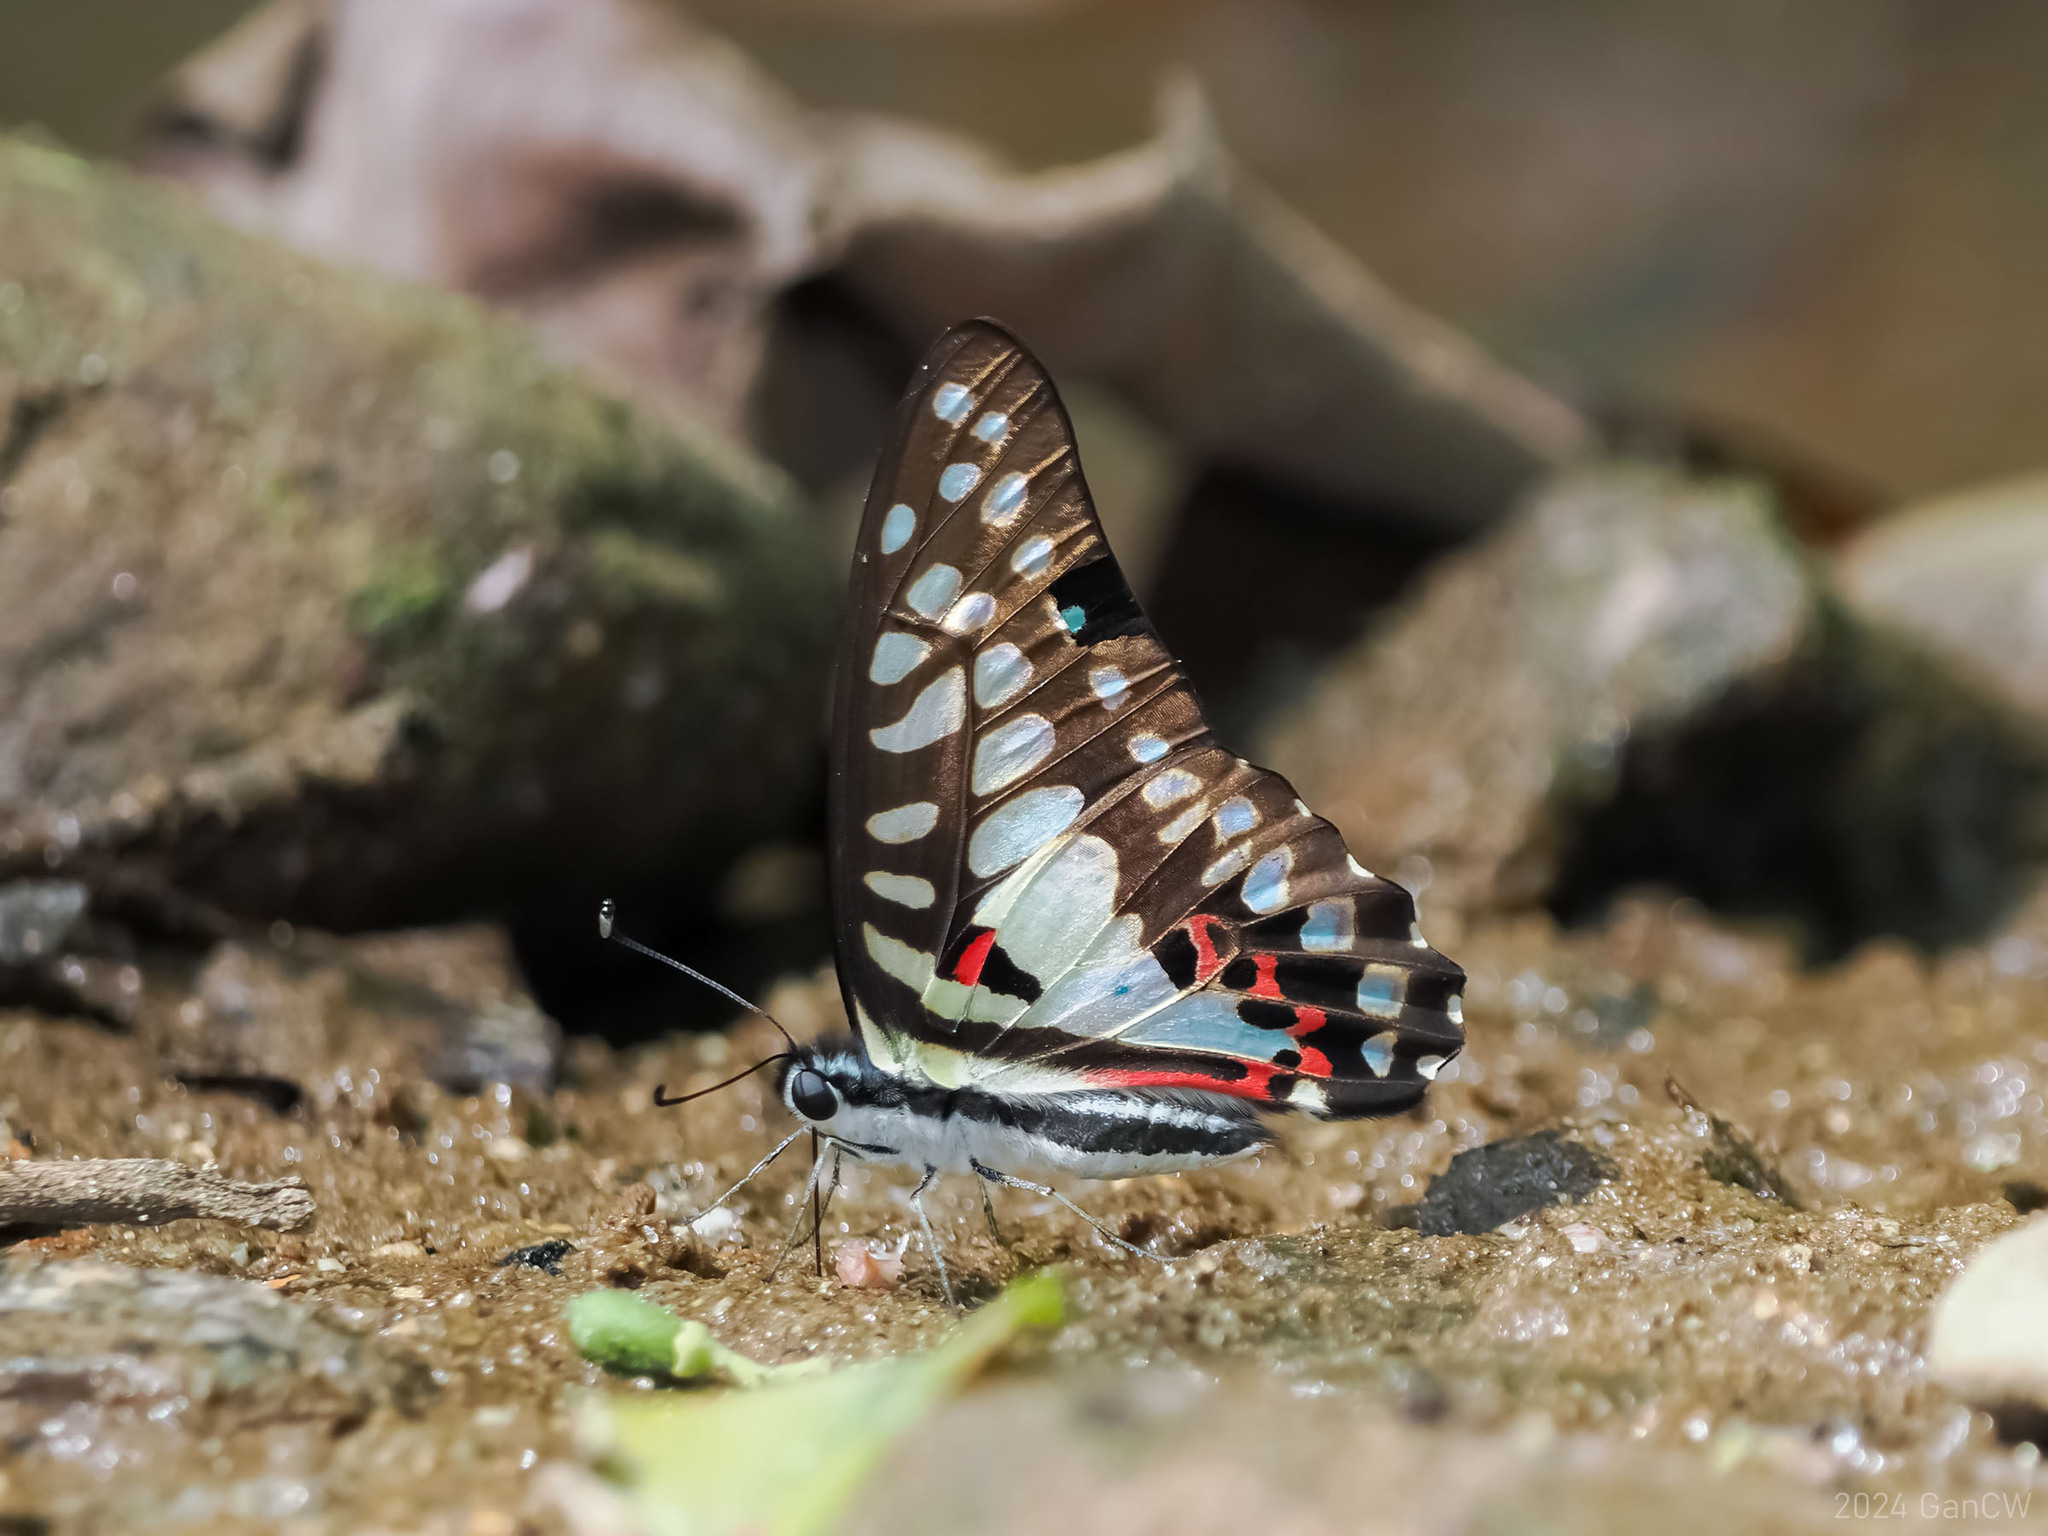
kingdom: Animalia
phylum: Arthropoda
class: Insecta
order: Lepidoptera
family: Papilionidae
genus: Graphium
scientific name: Graphium doson
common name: Common jay
